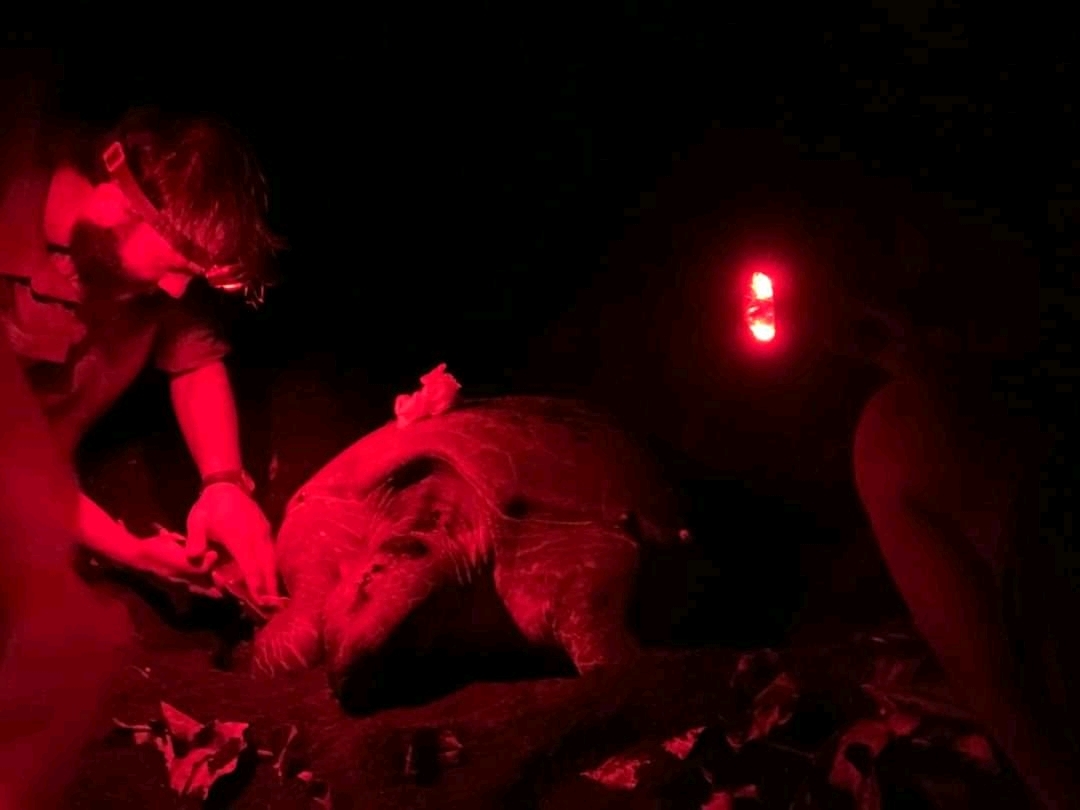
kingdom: Animalia
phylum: Chordata
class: Testudines
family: Cheloniidae
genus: Chelonia
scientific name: Chelonia mydas
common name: Green turtle
